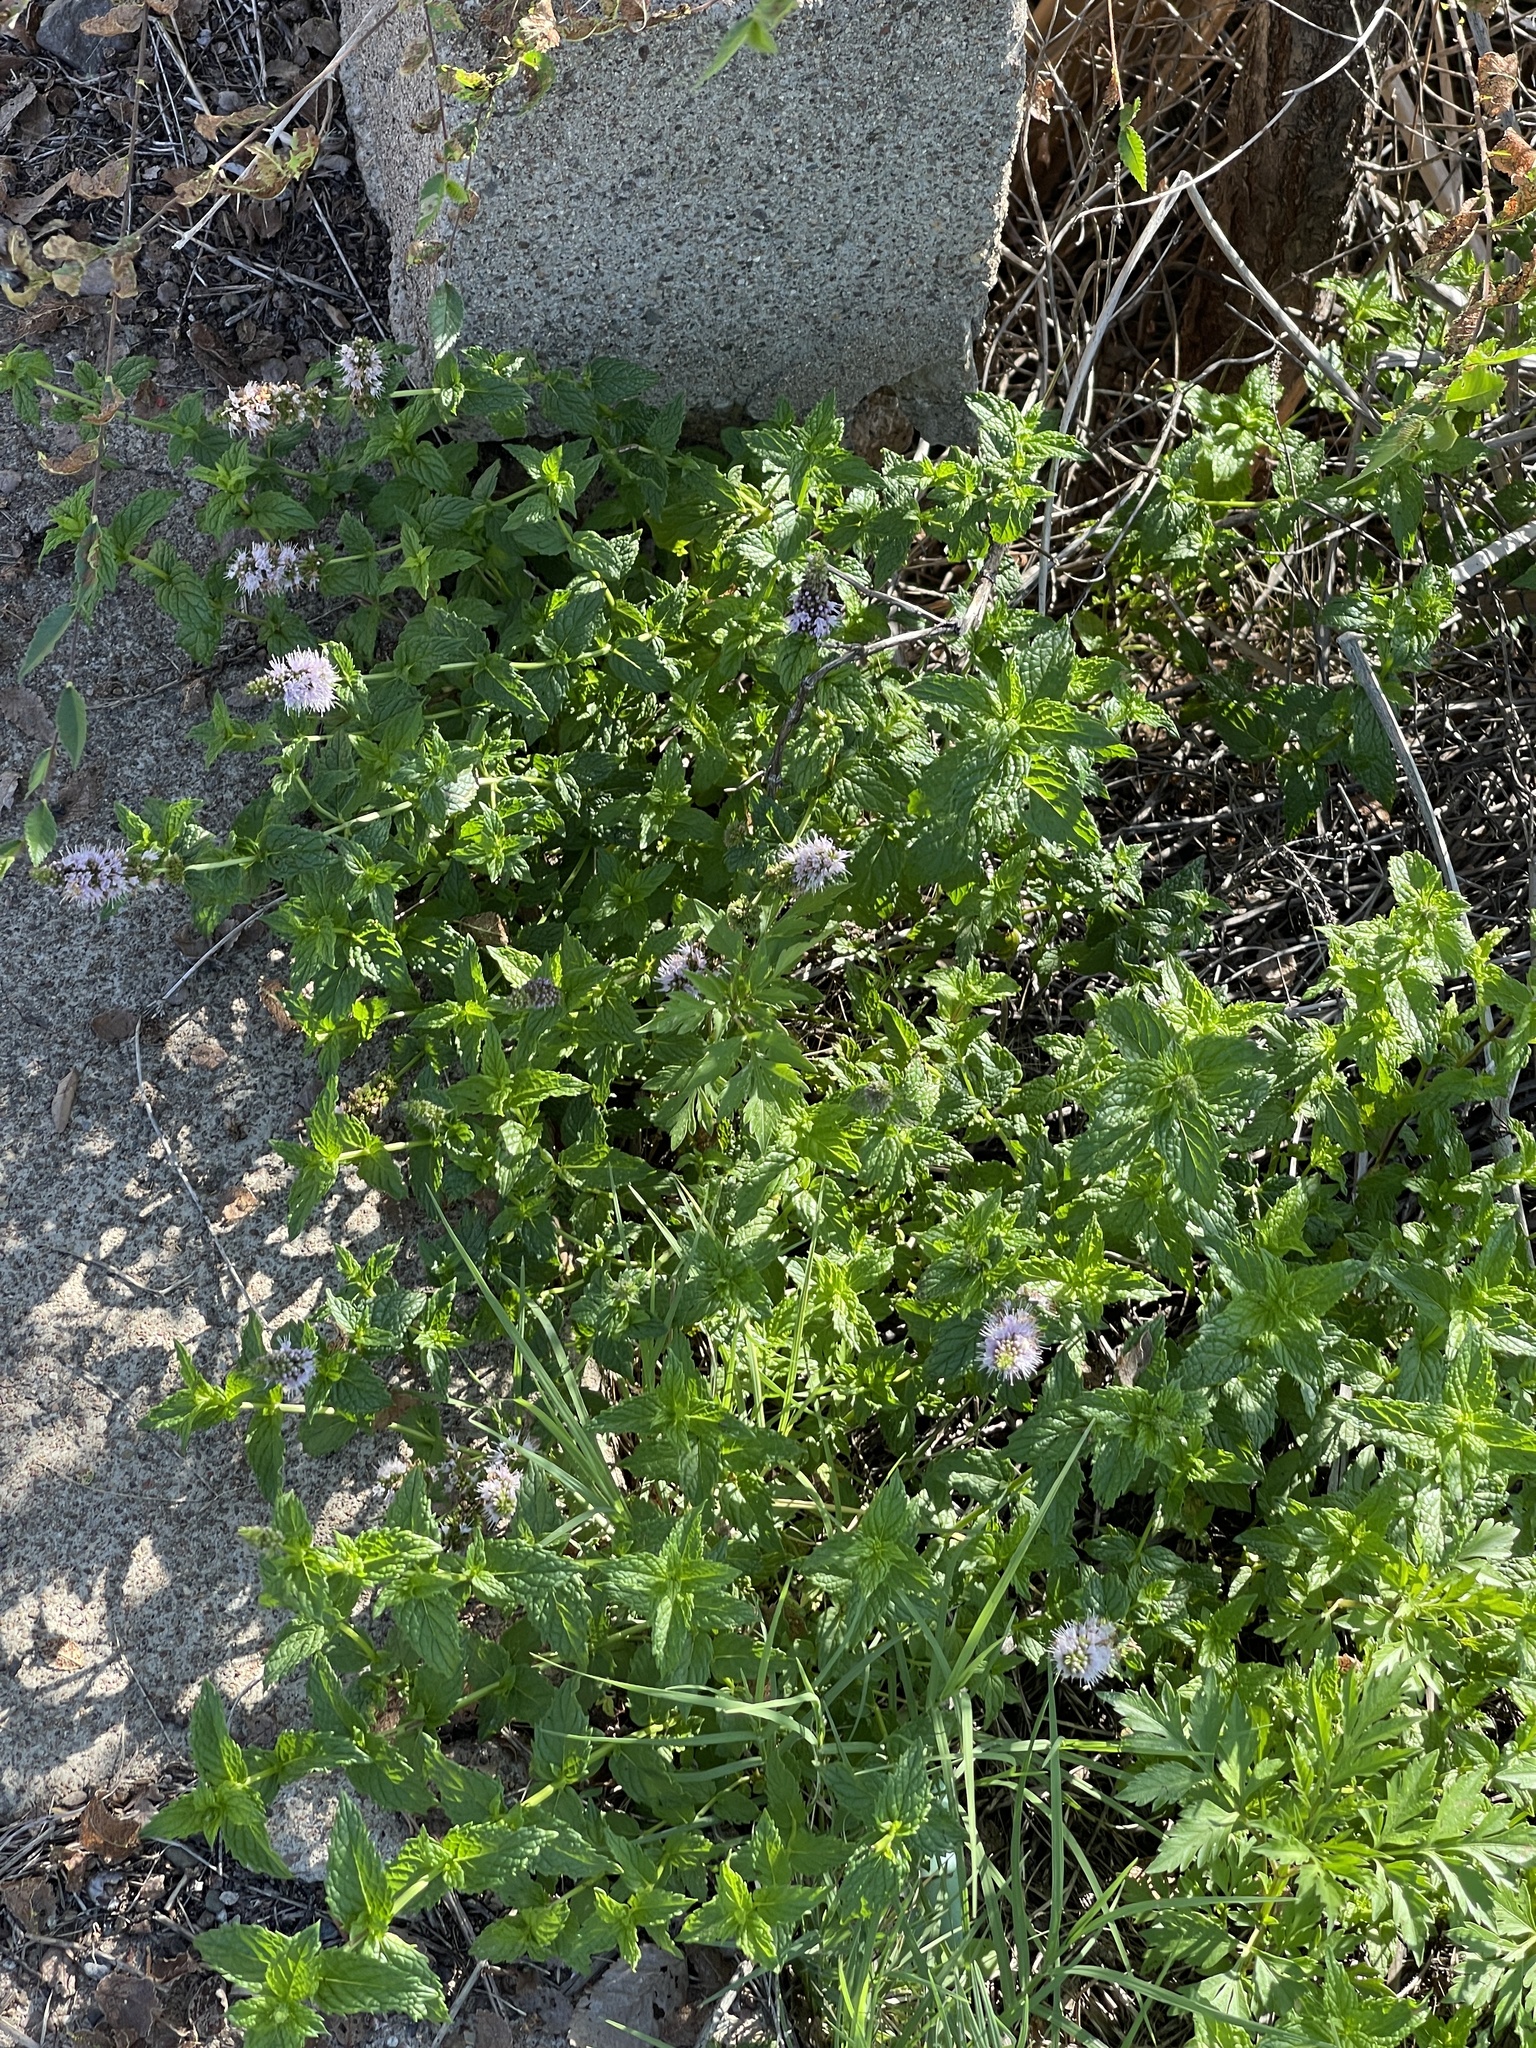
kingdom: Plantae
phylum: Tracheophyta
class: Magnoliopsida
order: Lamiales
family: Lamiaceae
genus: Mentha
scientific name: Mentha spicata
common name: Spearmint
